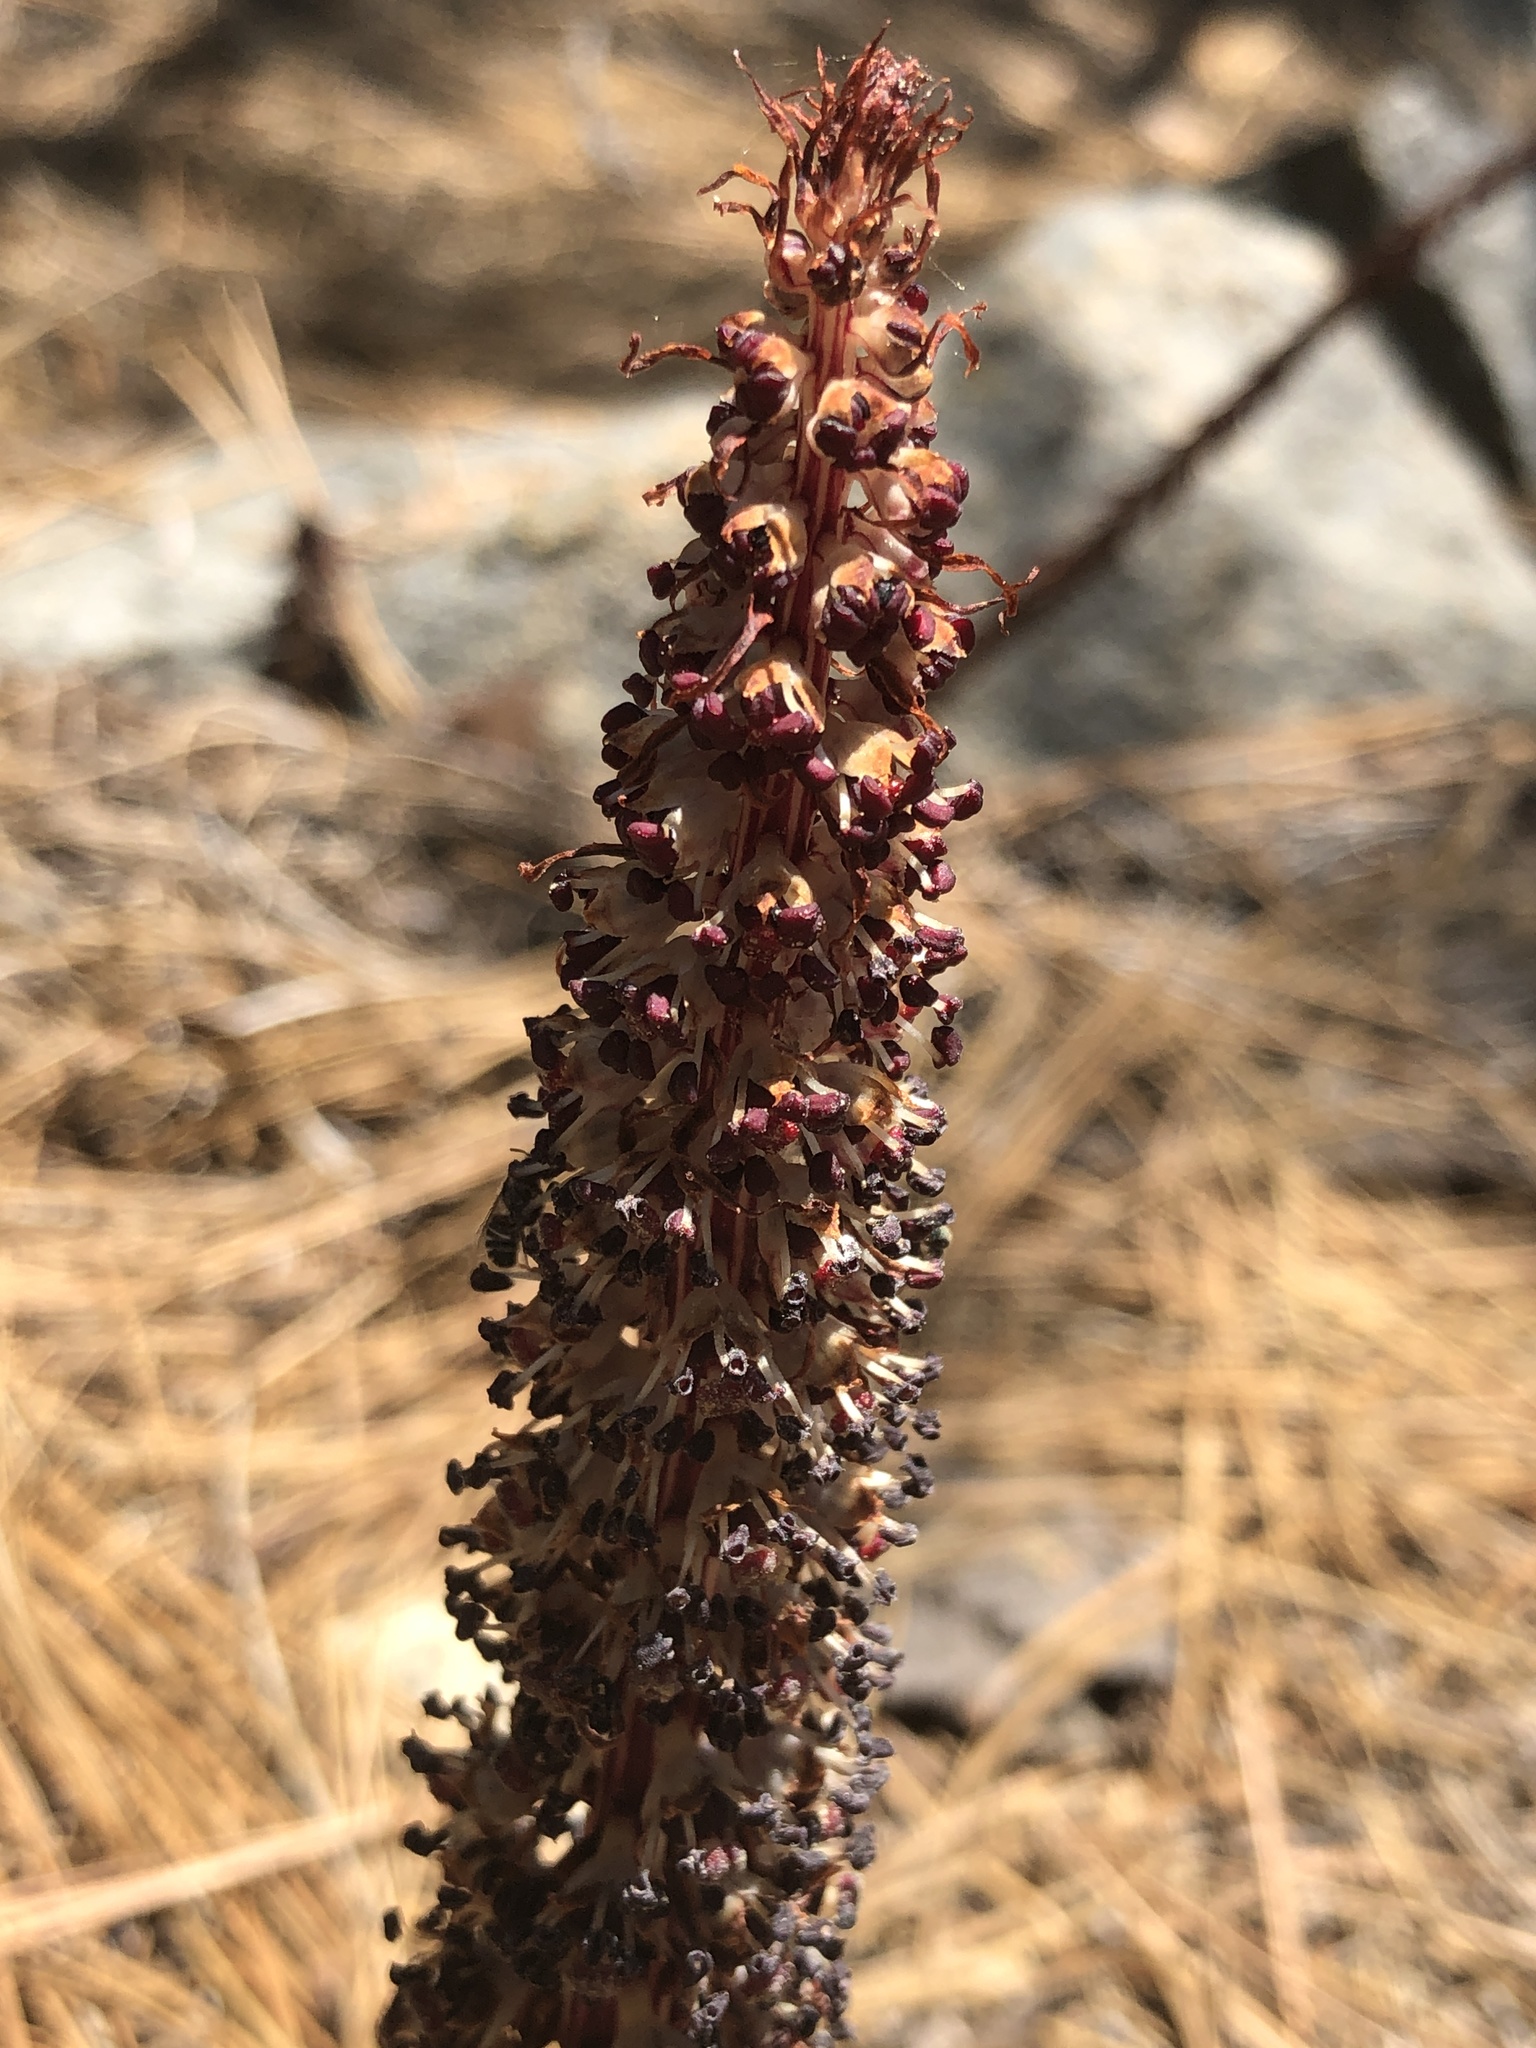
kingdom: Plantae
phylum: Tracheophyta
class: Magnoliopsida
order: Ericales
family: Ericaceae
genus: Allotropa
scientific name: Allotropa virgata
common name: Candy-striped allotropa
